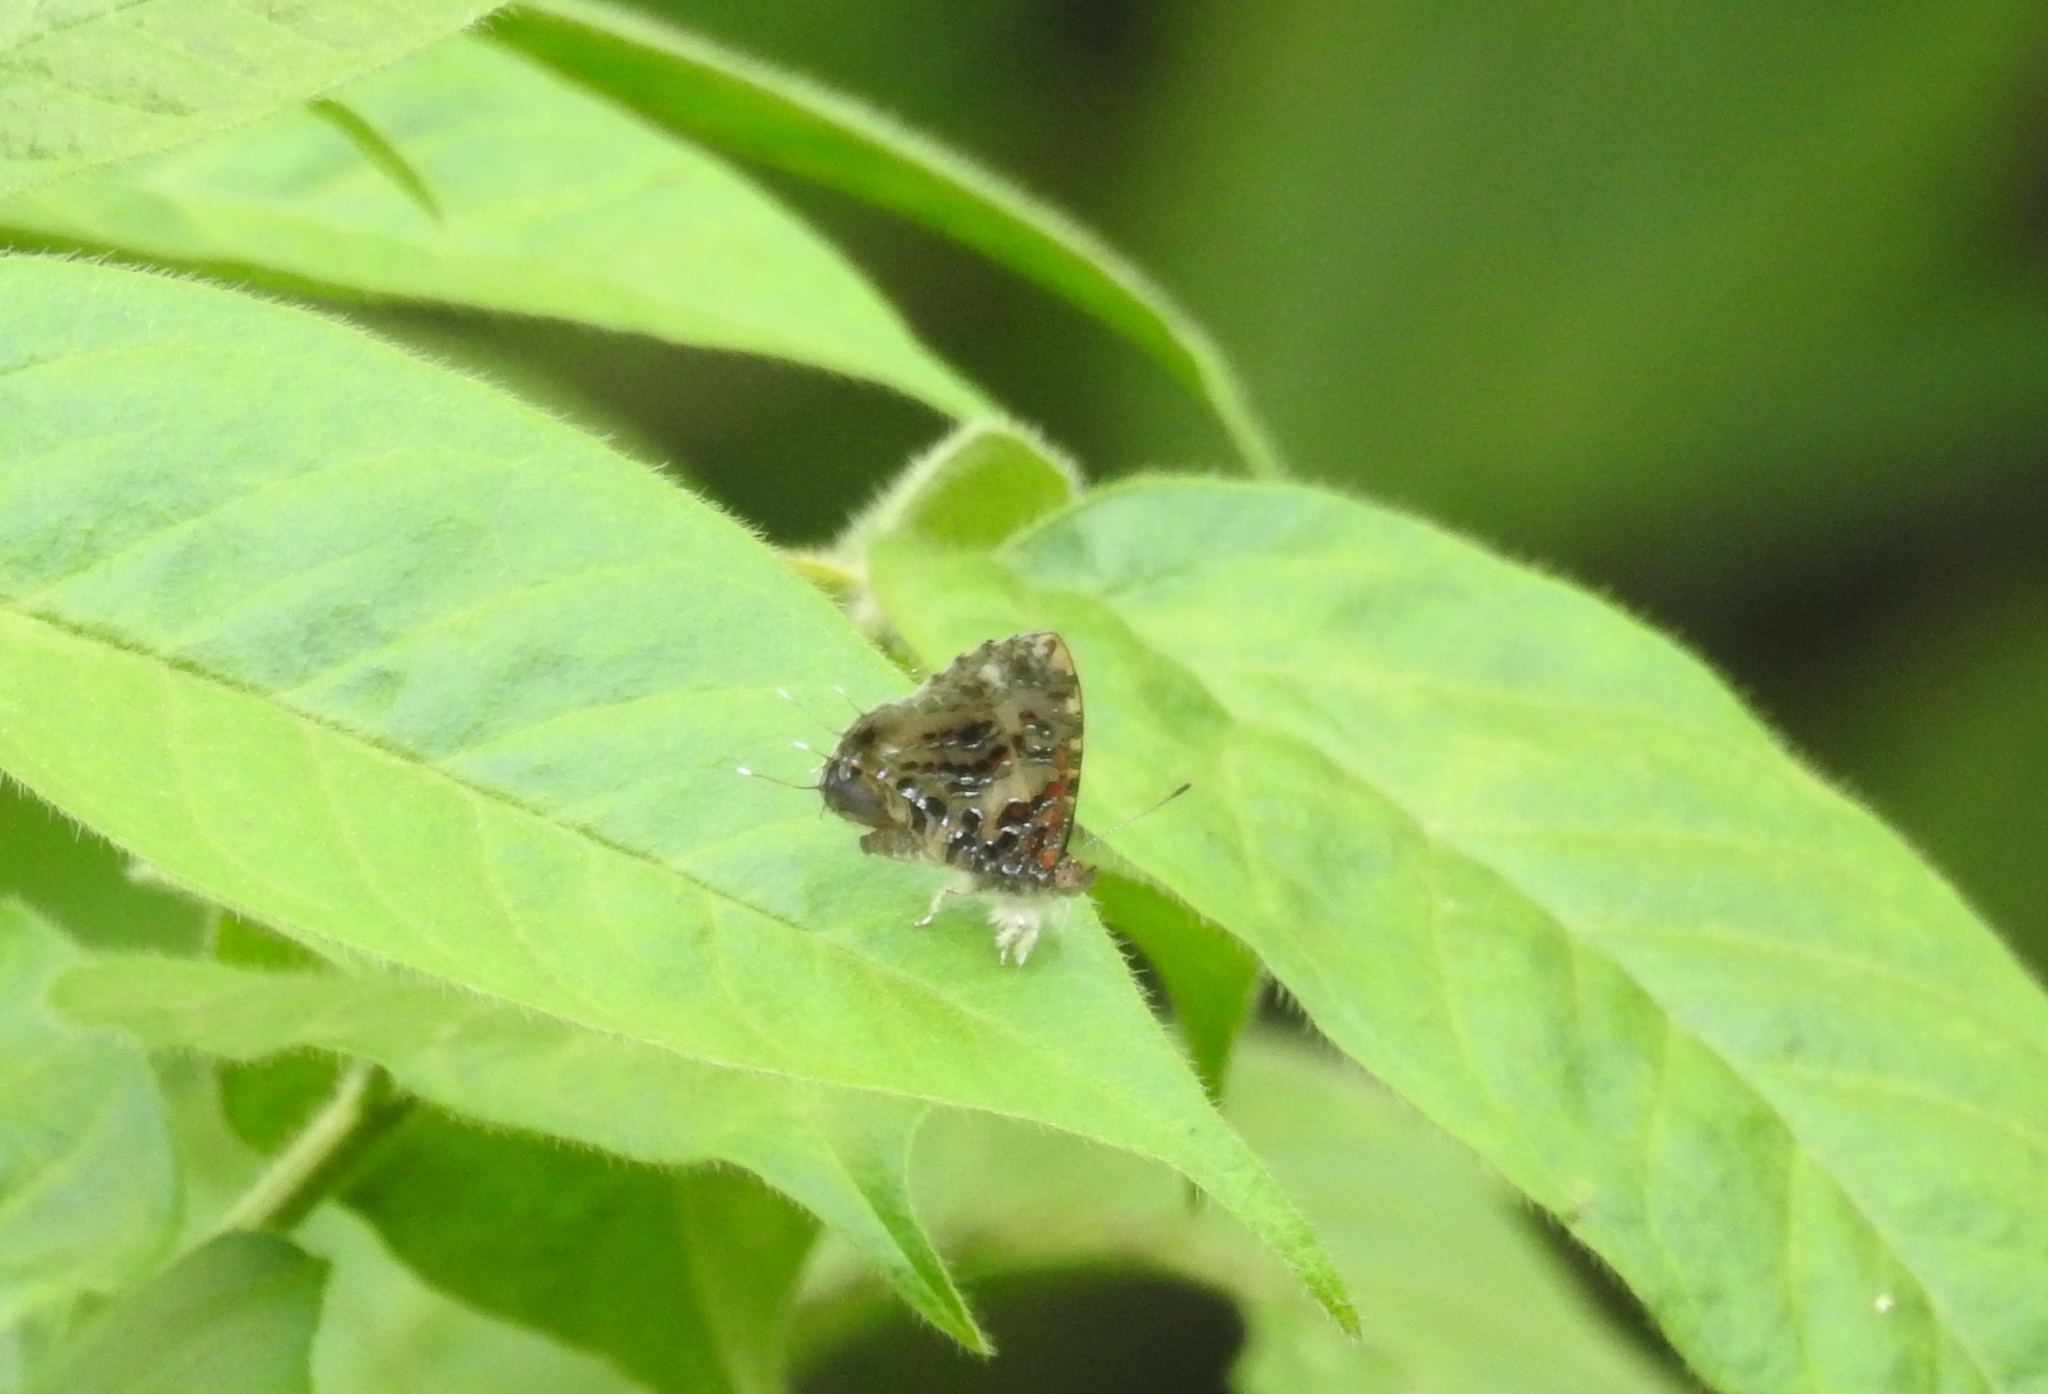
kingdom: Animalia
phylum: Arthropoda
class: Insecta
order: Lepidoptera
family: Lycaenidae
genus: Catapaecilma
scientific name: Catapaecilma major
